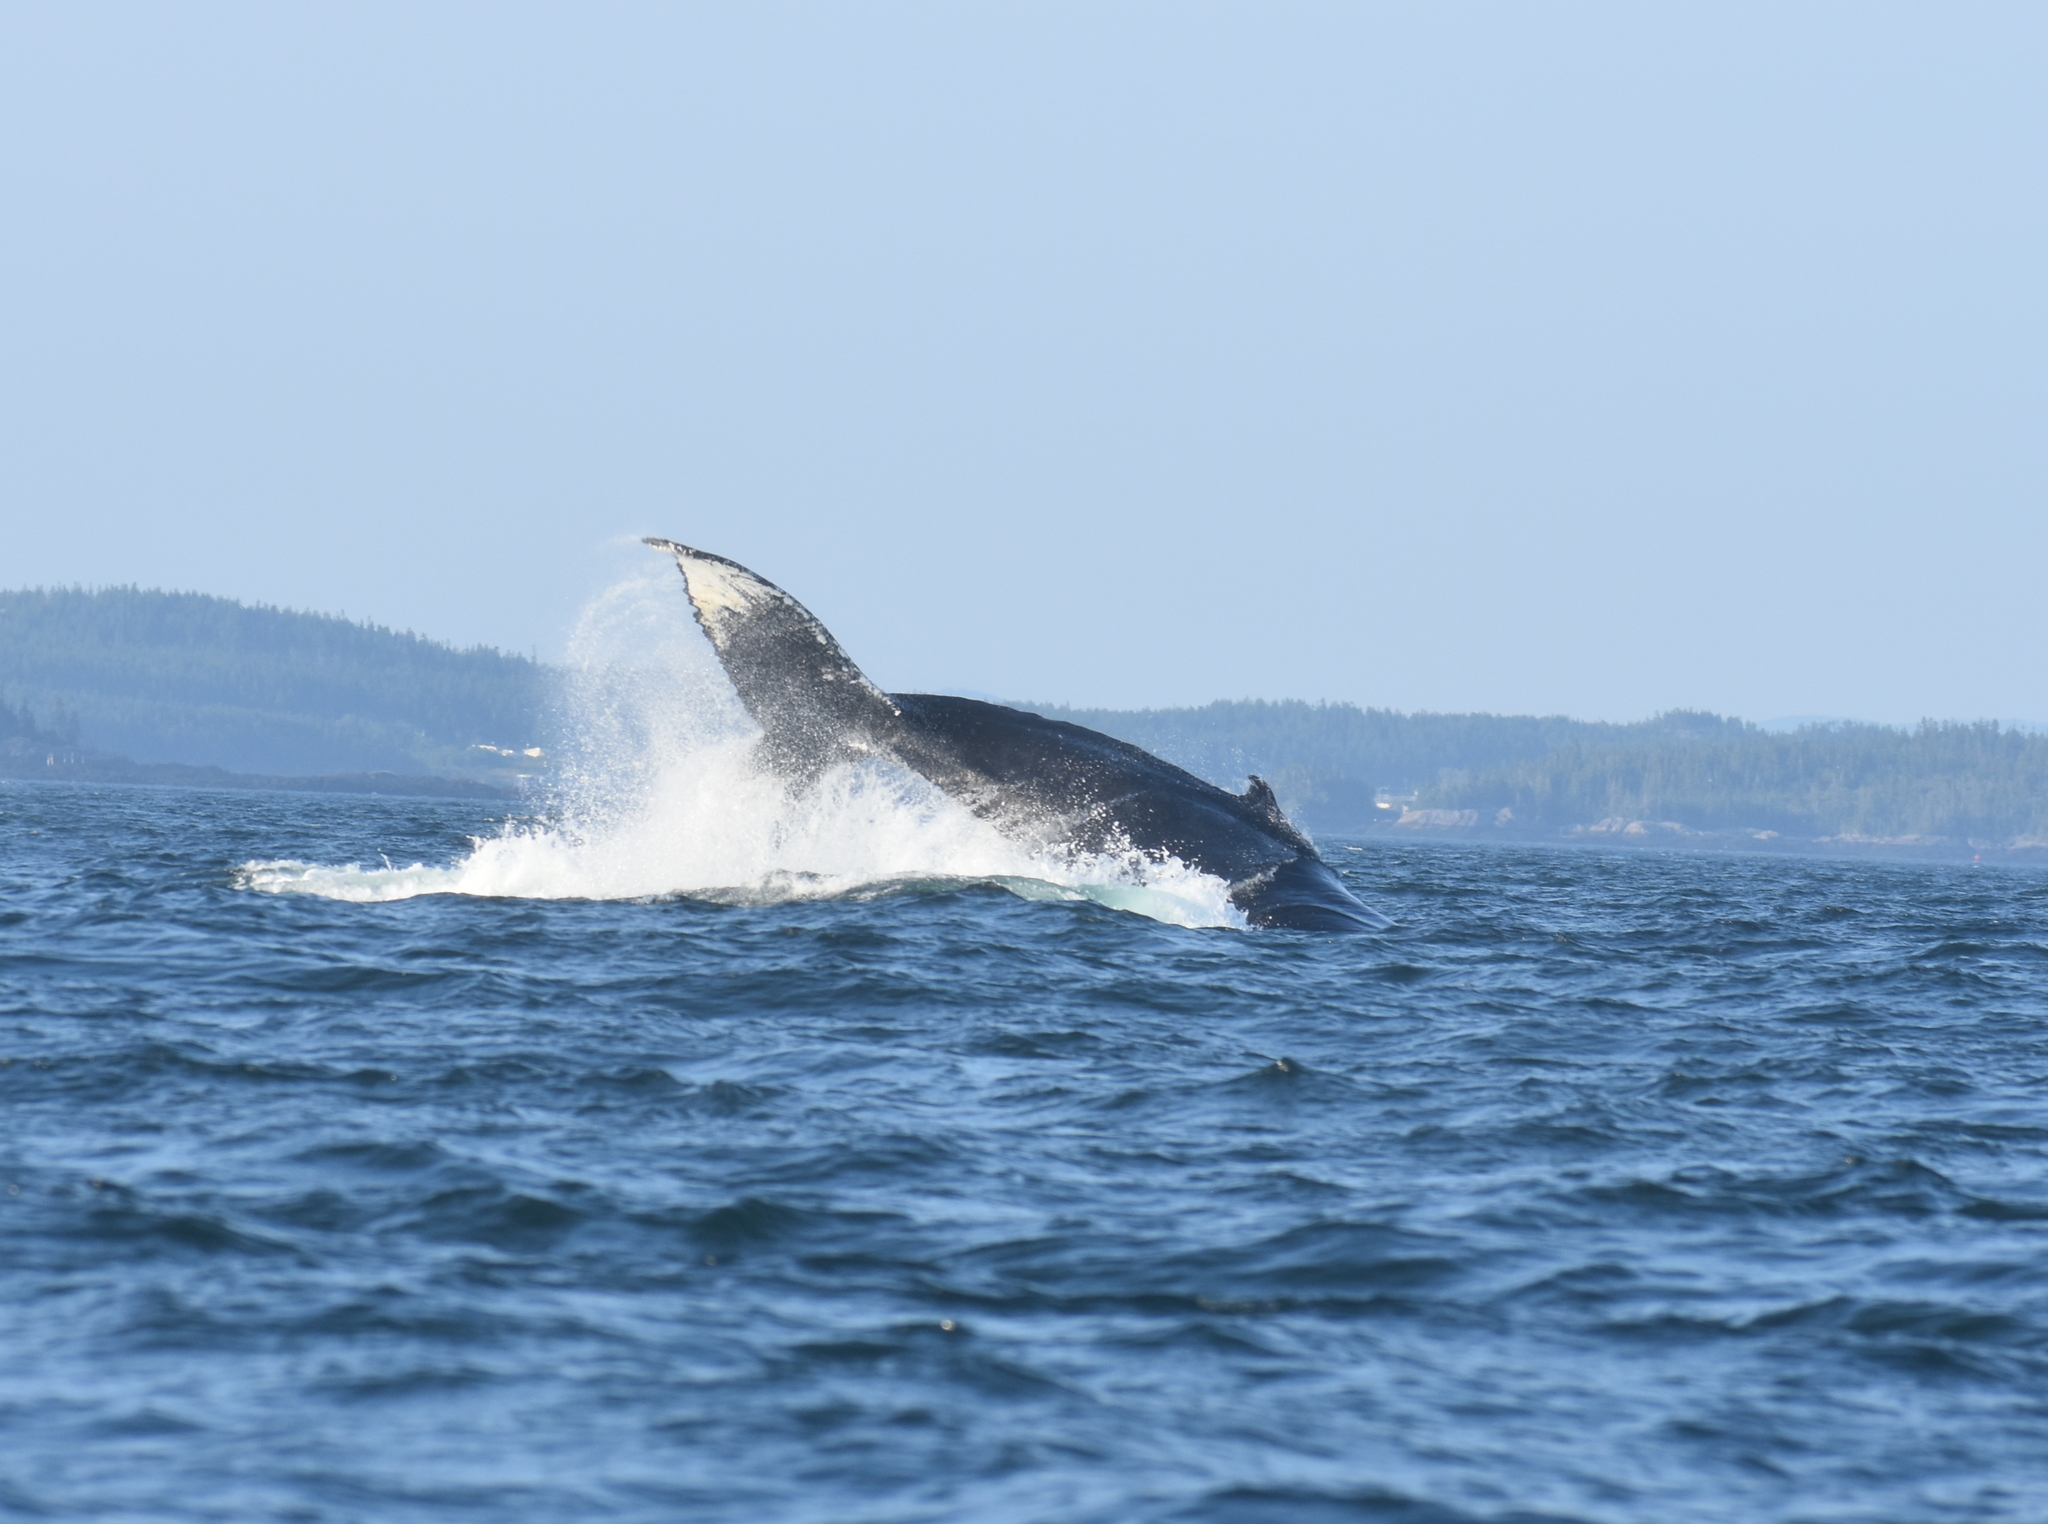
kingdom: Animalia
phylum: Chordata
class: Mammalia
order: Cetacea
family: Balaenopteridae
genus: Megaptera
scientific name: Megaptera novaeangliae
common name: Humpback whale
